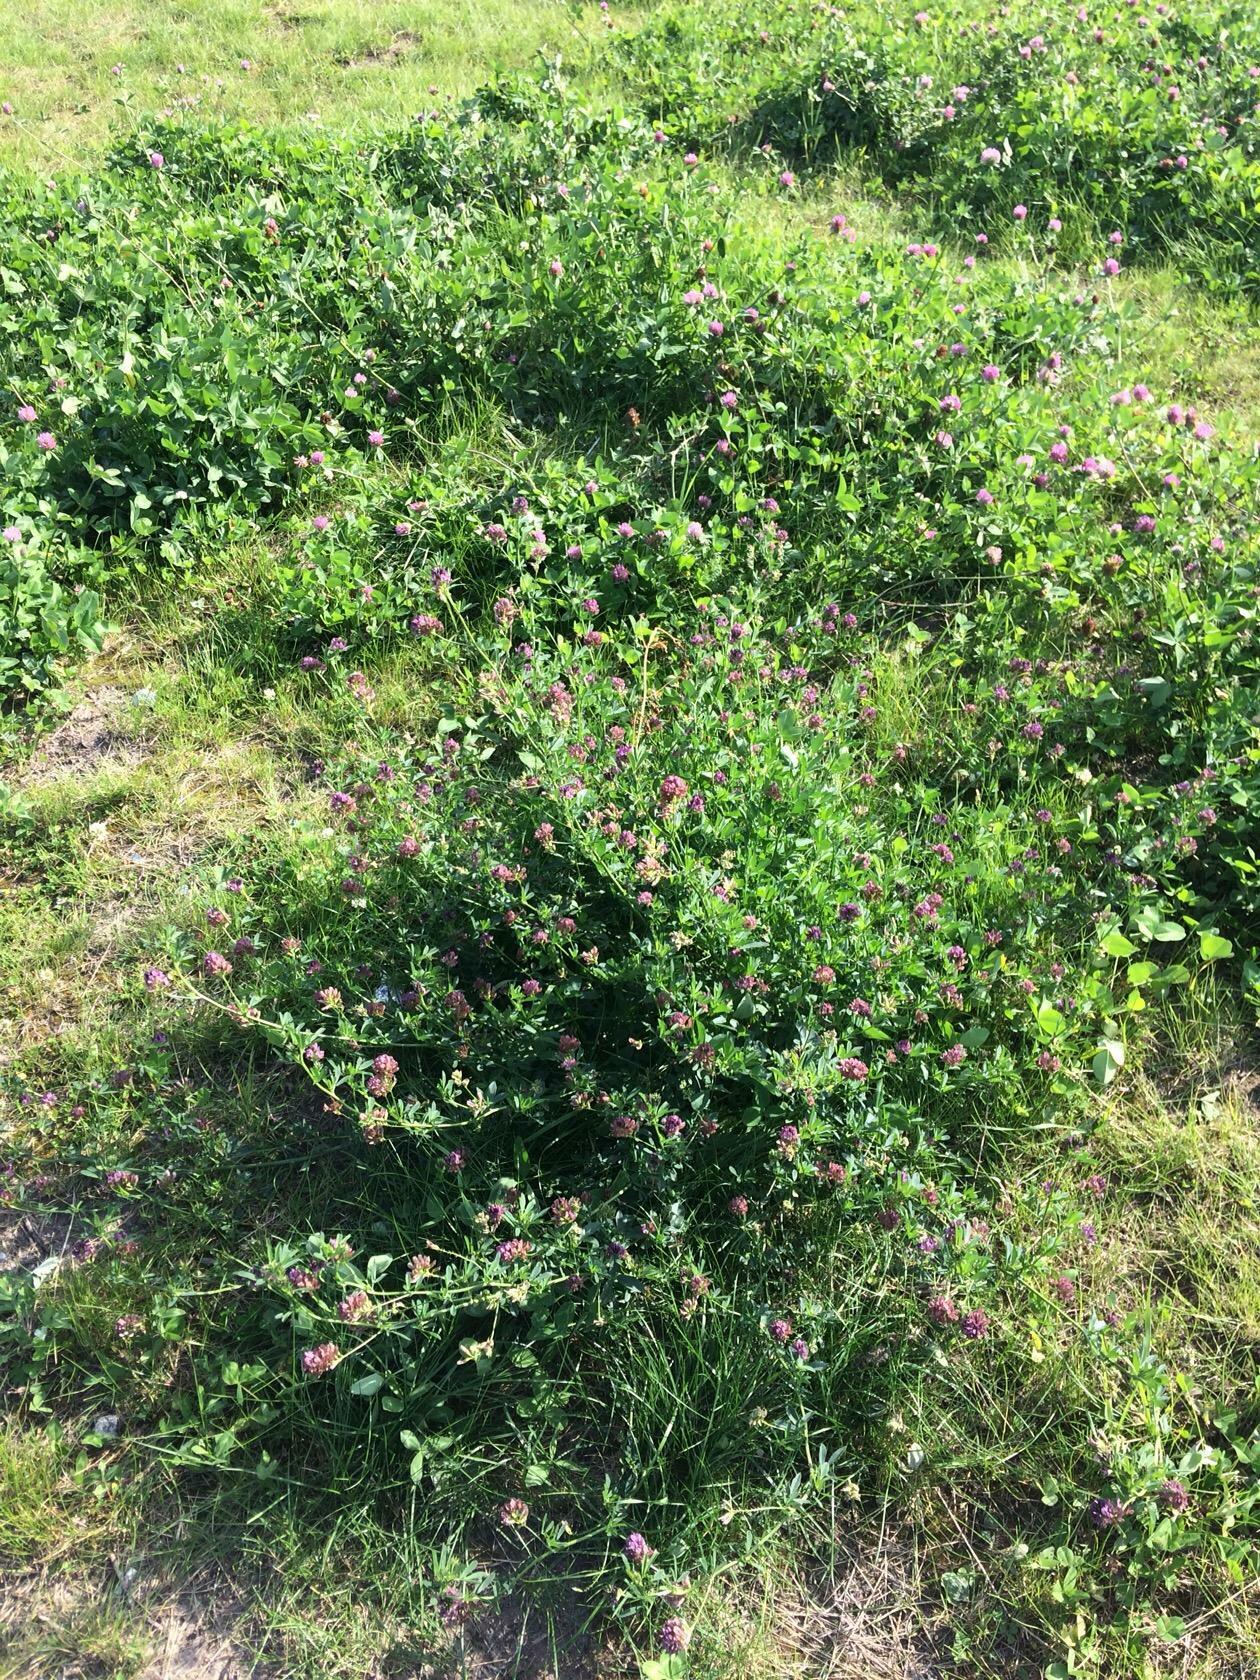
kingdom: Plantae
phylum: Tracheophyta
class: Magnoliopsida
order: Fabales
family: Fabaceae
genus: Medicago
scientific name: Medicago varia
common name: Sand lucerne
